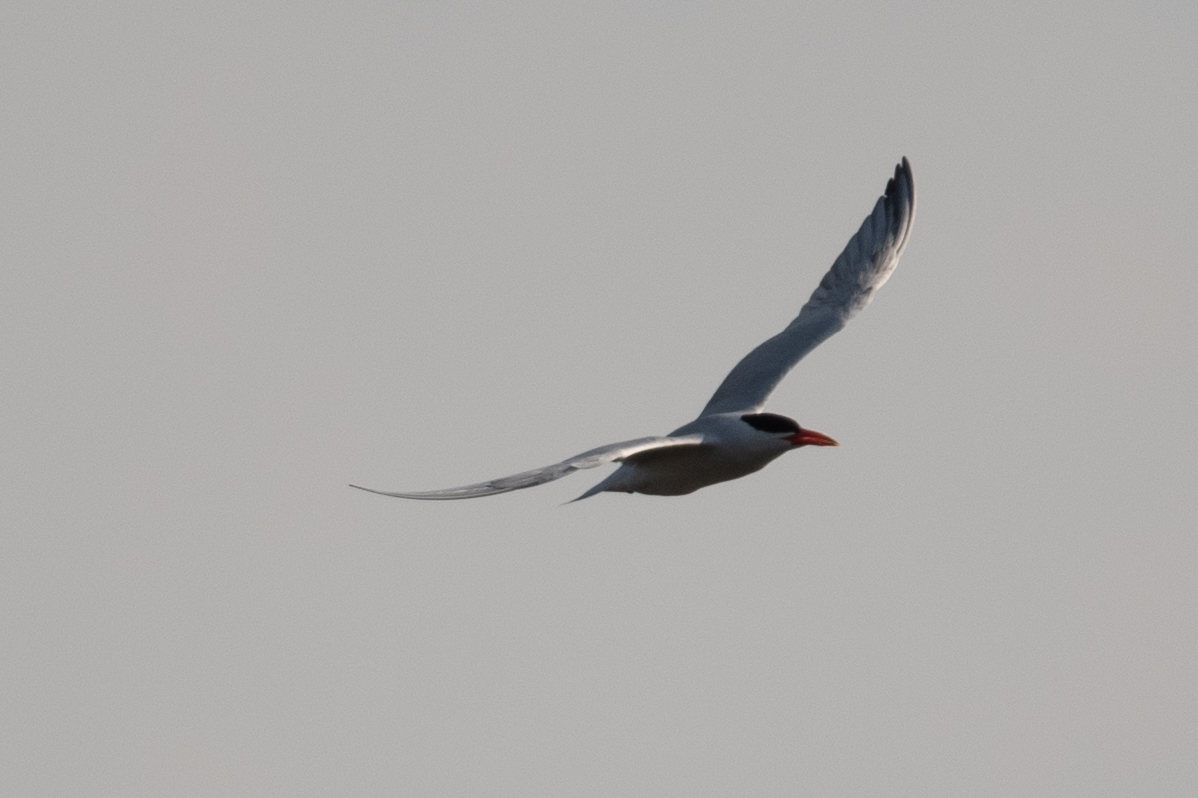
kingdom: Animalia
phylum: Chordata
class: Aves
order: Charadriiformes
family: Laridae
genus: Hydroprogne
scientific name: Hydroprogne caspia
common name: Caspian tern
